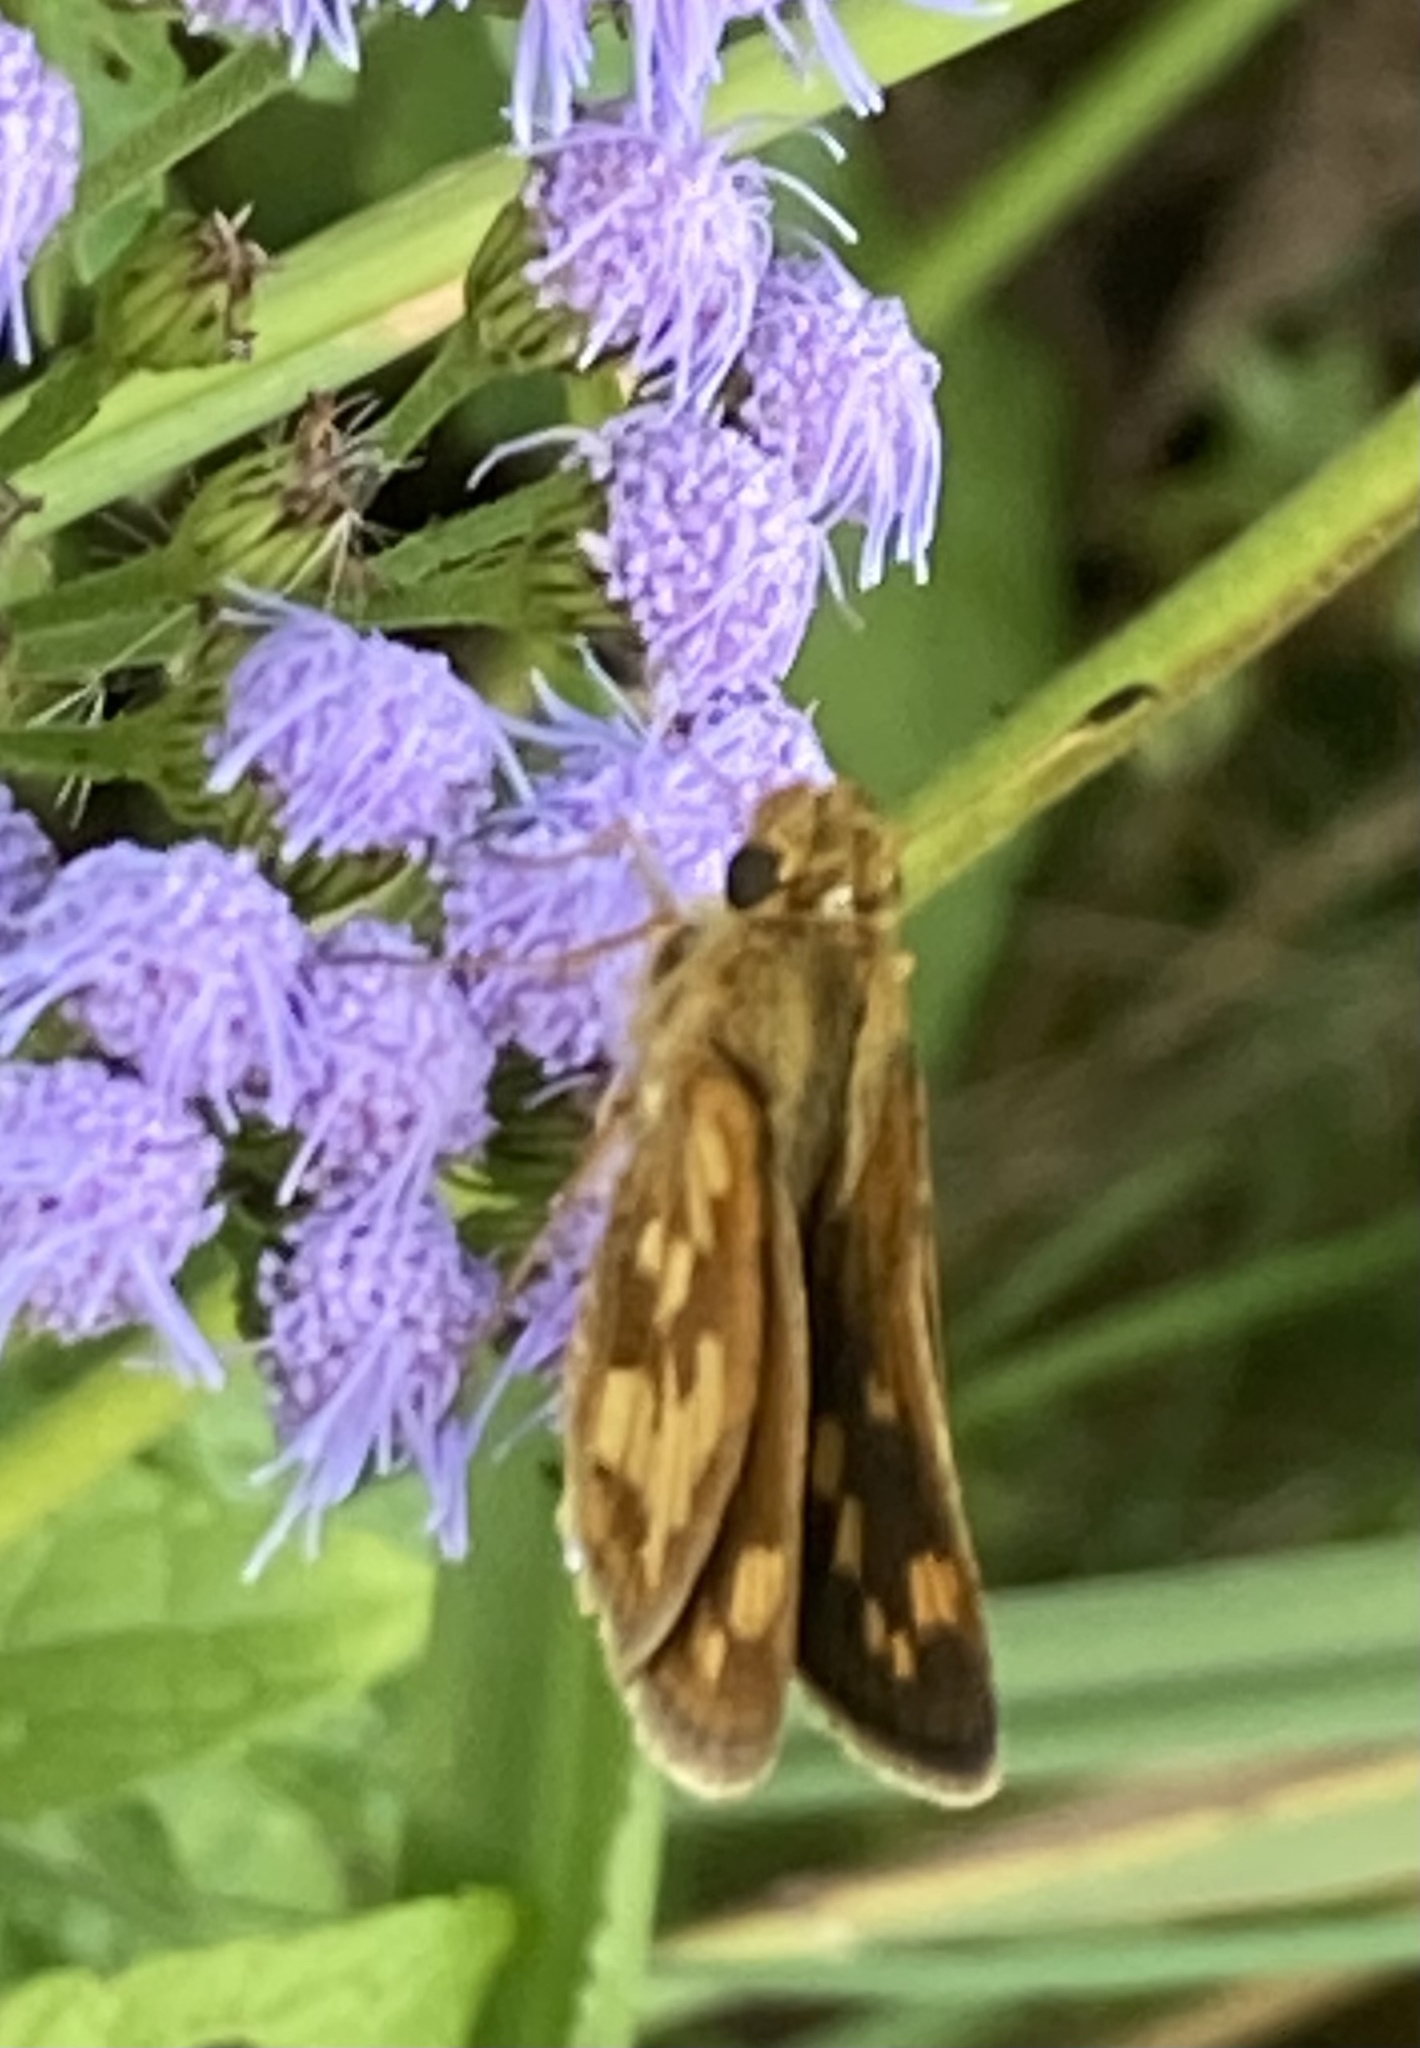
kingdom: Animalia
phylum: Arthropoda
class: Insecta
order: Lepidoptera
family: Hesperiidae
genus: Polites
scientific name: Polites coras
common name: Peck's skipper
